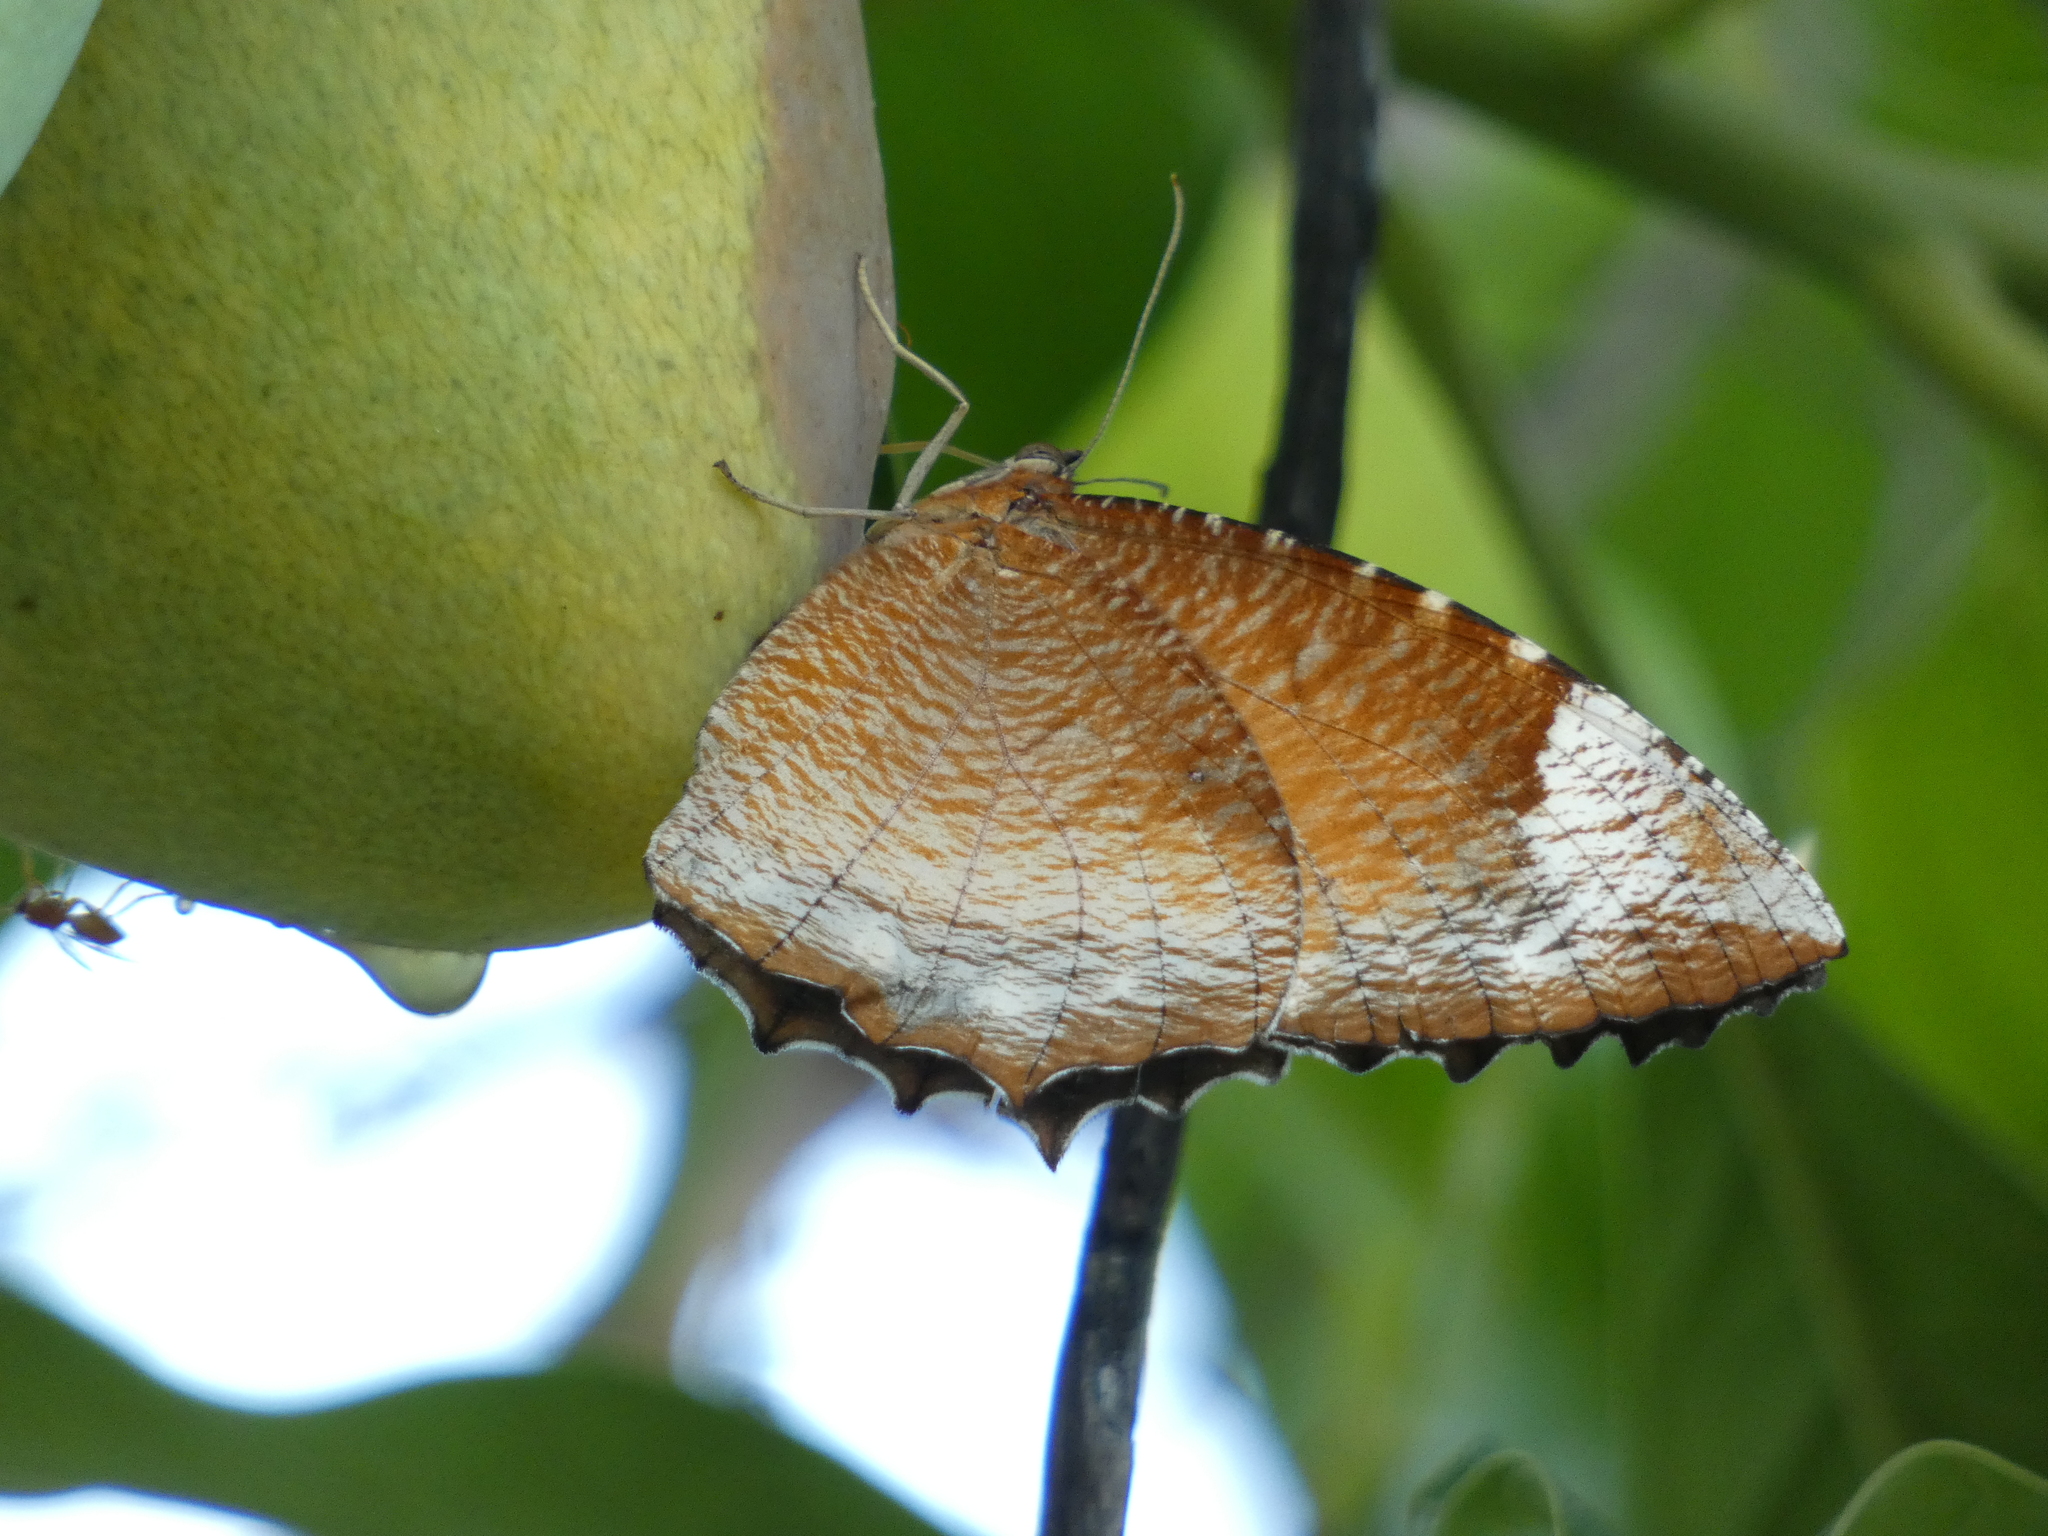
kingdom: Animalia
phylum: Arthropoda
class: Insecta
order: Lepidoptera
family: Nymphalidae
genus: Elymnias
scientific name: Elymnias hypermnestra
